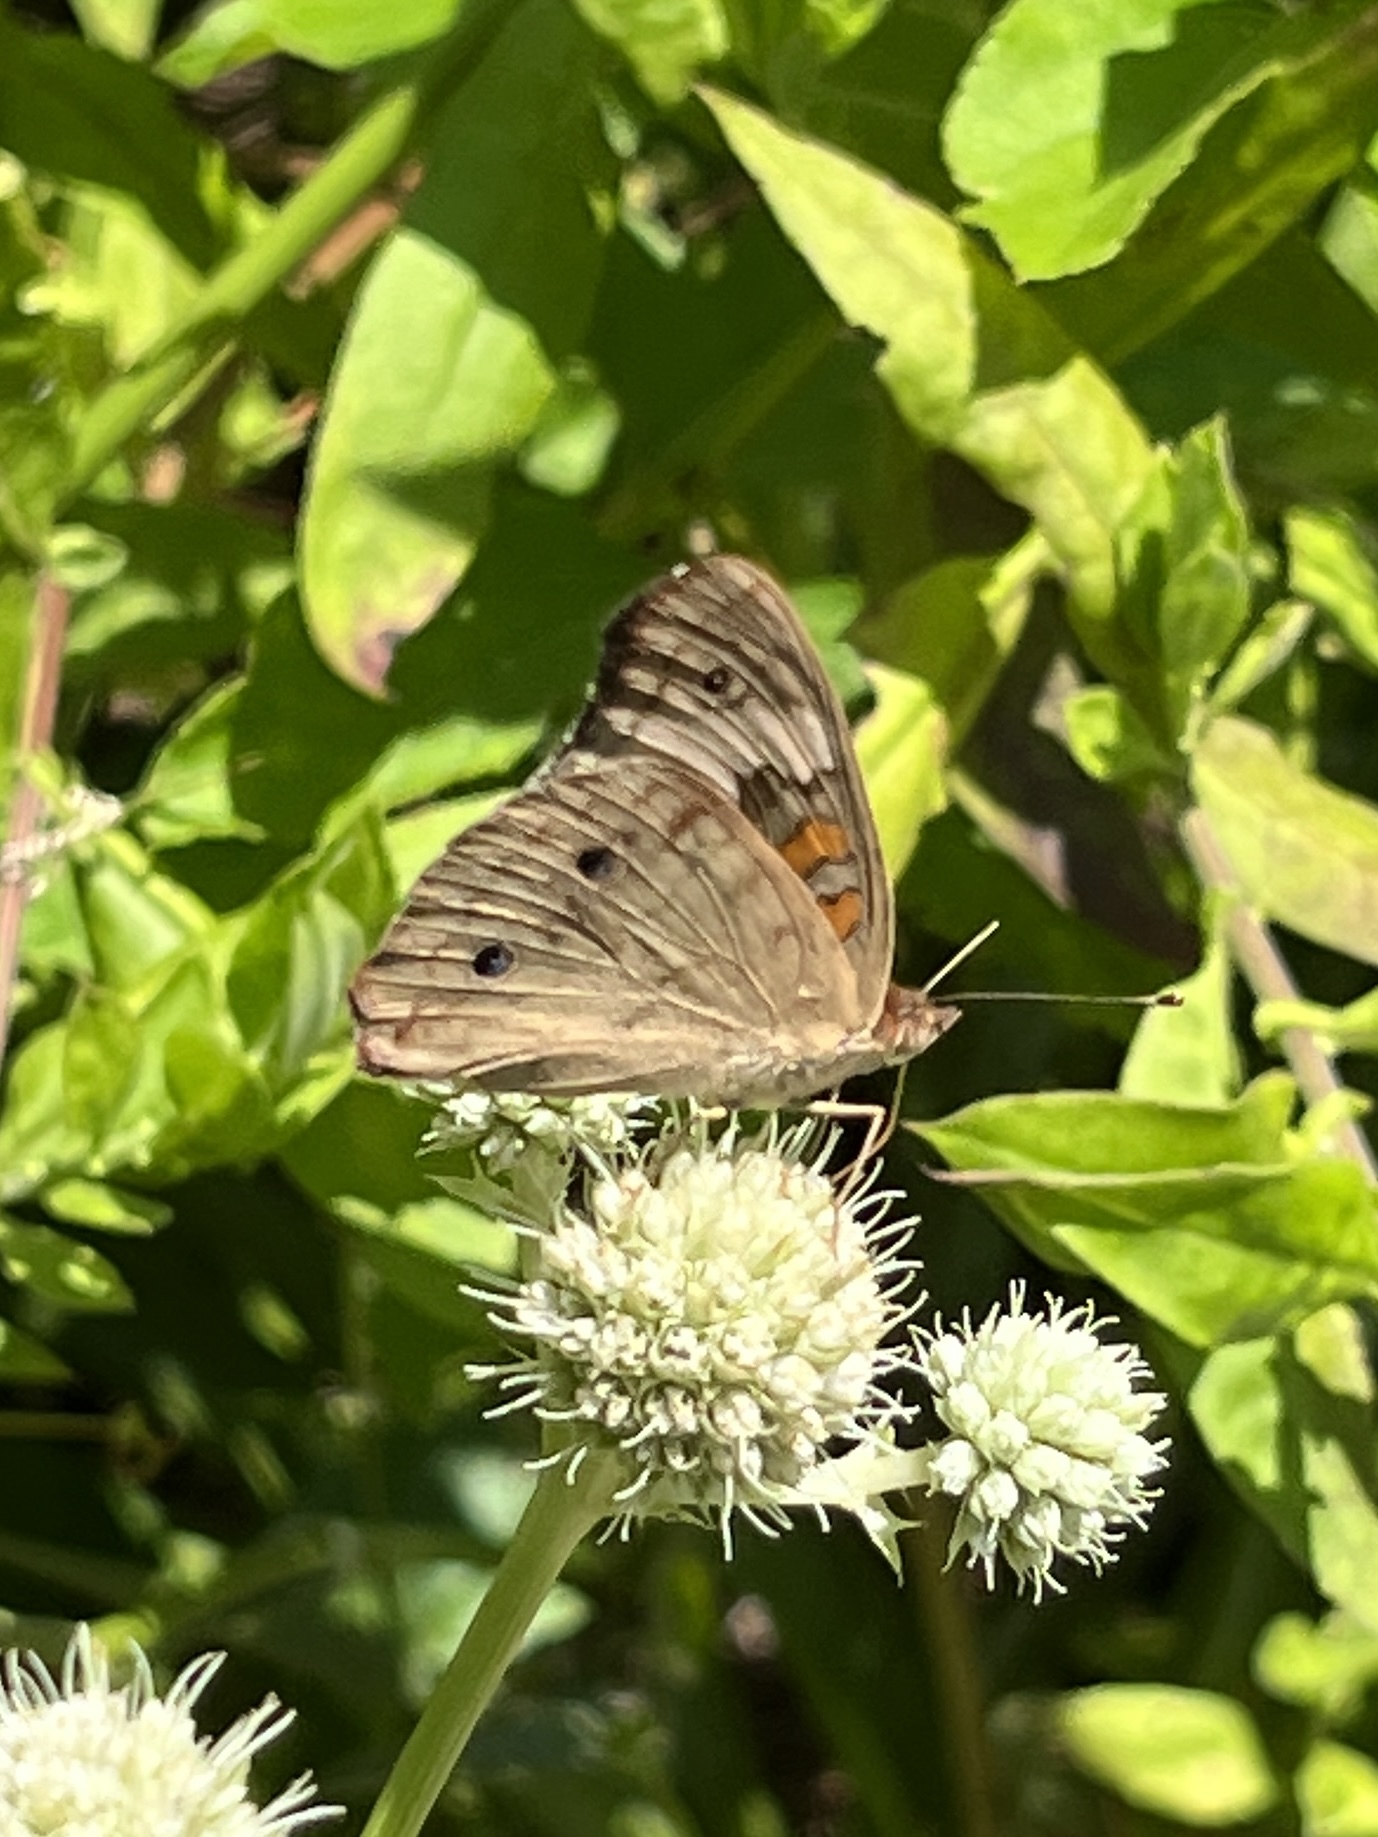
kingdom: Animalia
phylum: Arthropoda
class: Insecta
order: Lepidoptera
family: Nymphalidae
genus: Junonia
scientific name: Junonia coenia
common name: Common buckeye
